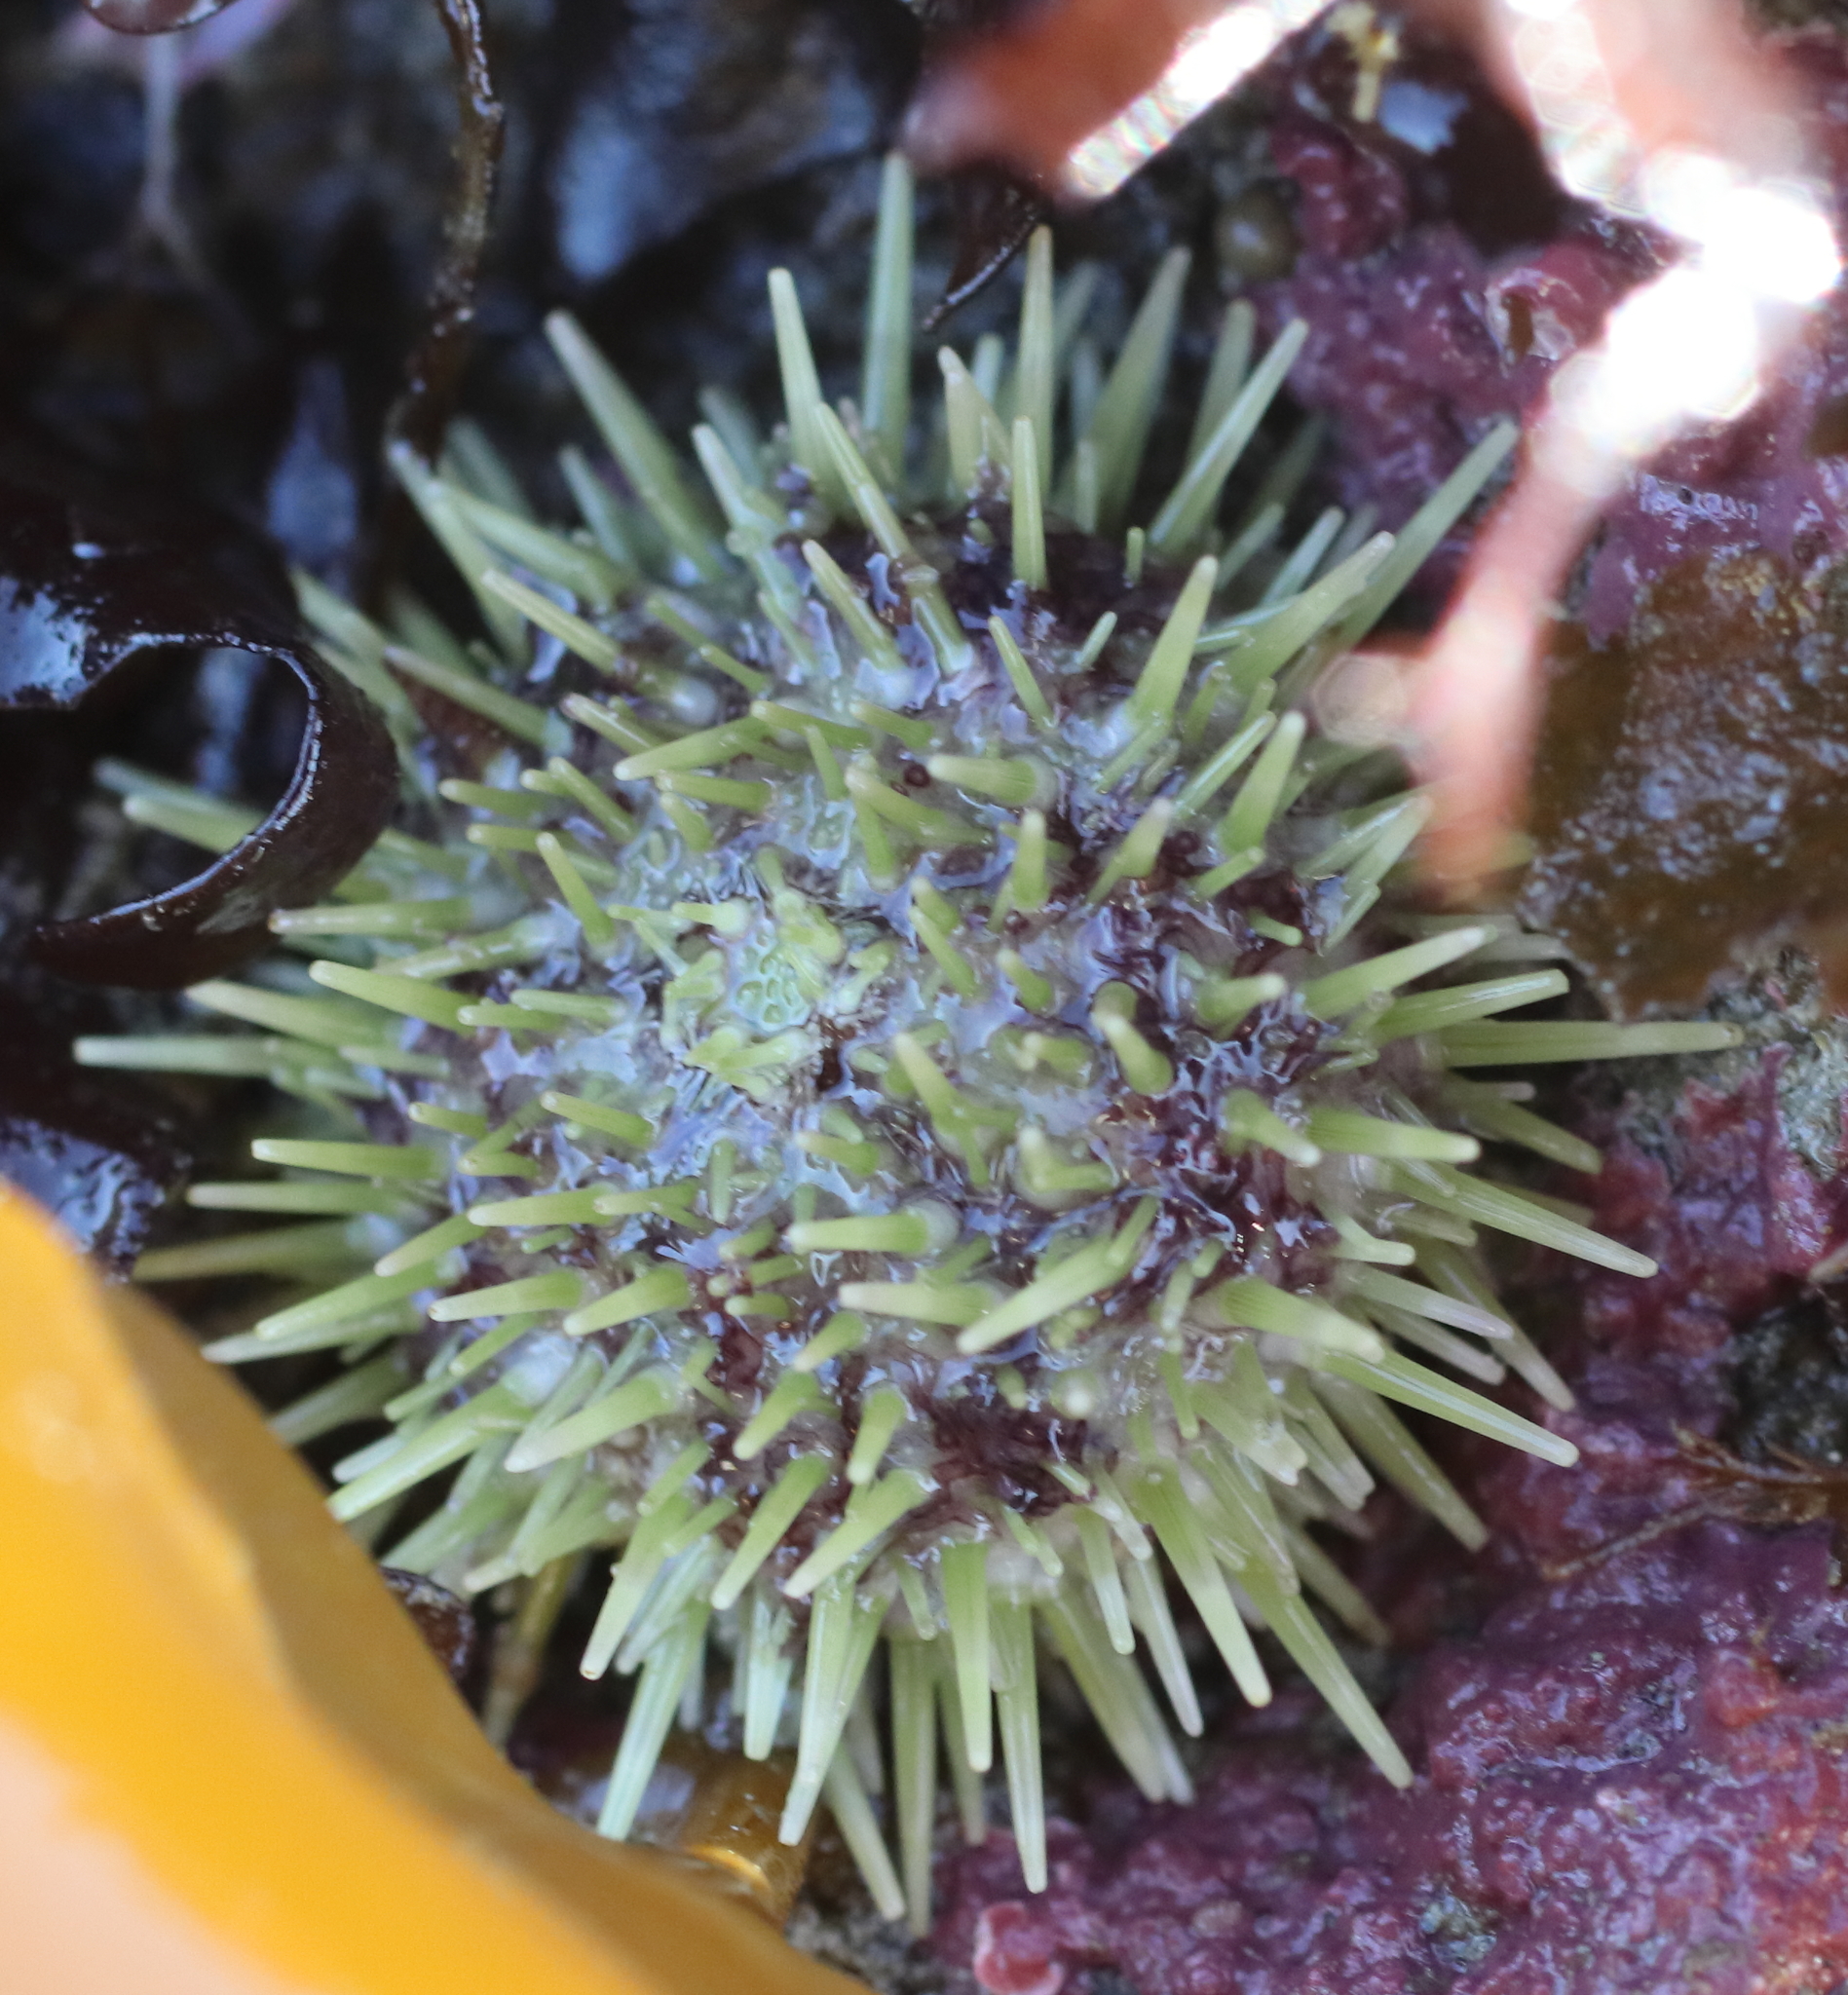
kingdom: Animalia
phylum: Echinodermata
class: Echinoidea
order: Camarodonta
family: Strongylocentrotidae
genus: Strongylocentrotus
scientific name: Strongylocentrotus droebachiensis
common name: Northern sea urchin
